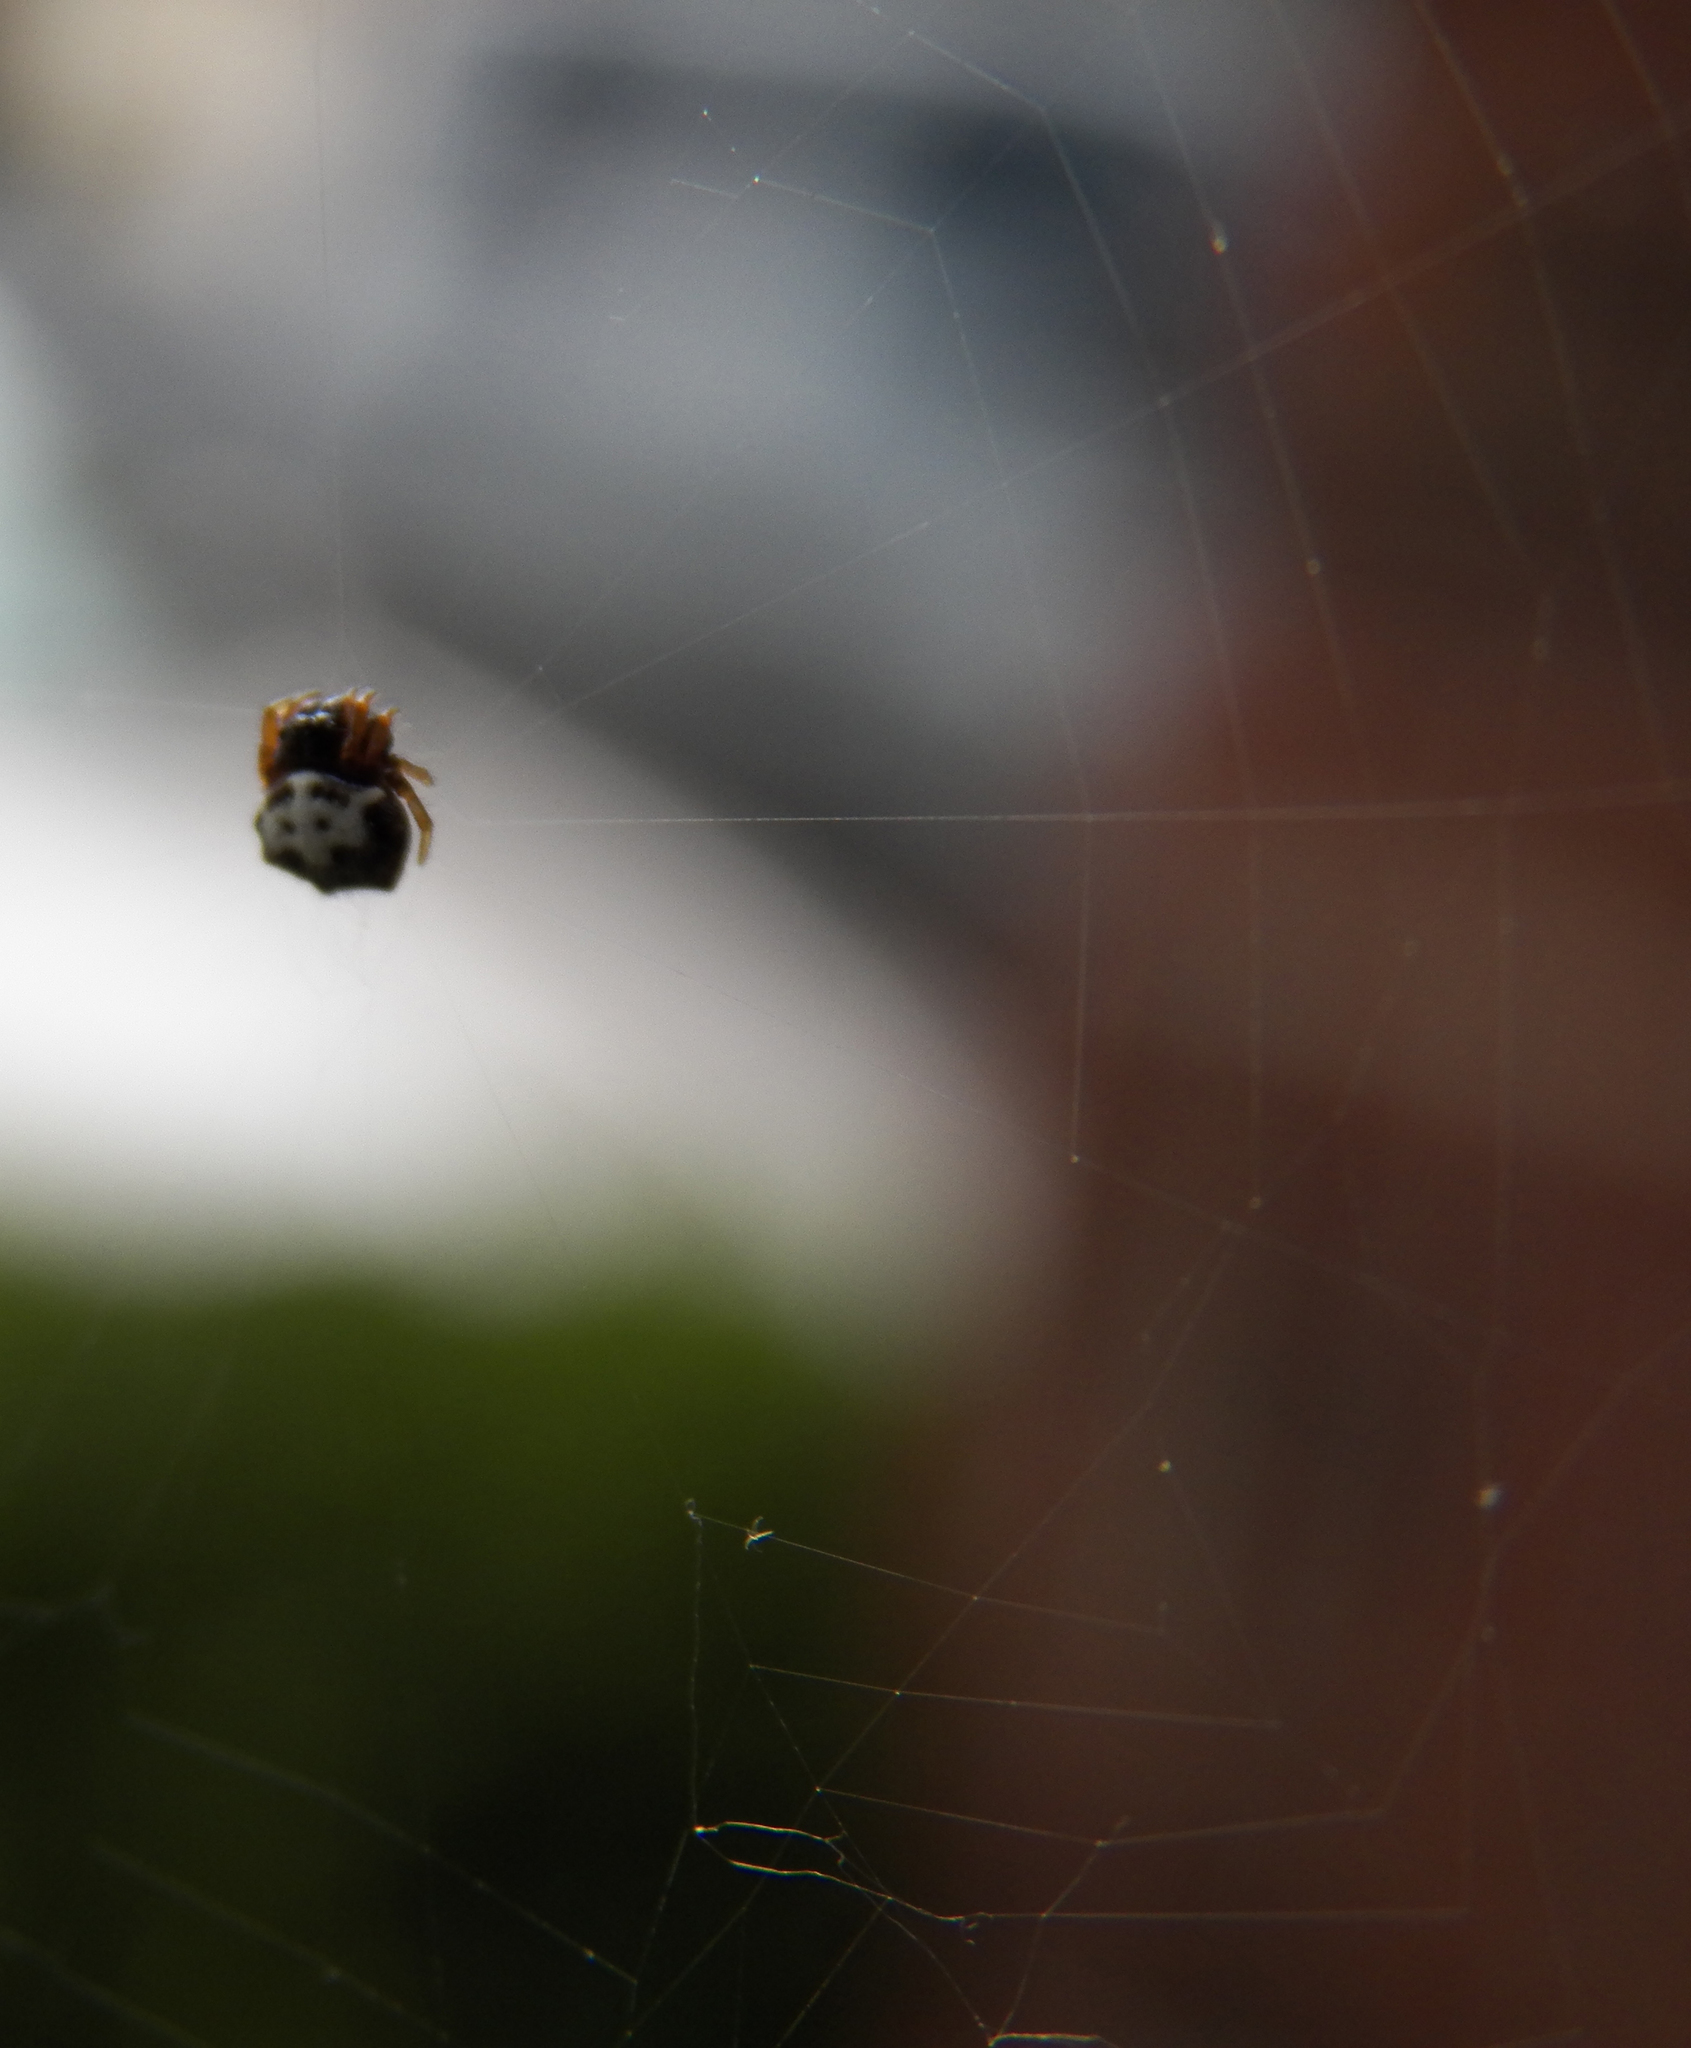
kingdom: Animalia
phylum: Arthropoda
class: Arachnida
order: Araneae
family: Araneidae
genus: Gasteracantha
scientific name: Gasteracantha cancriformis
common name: Orb weavers
